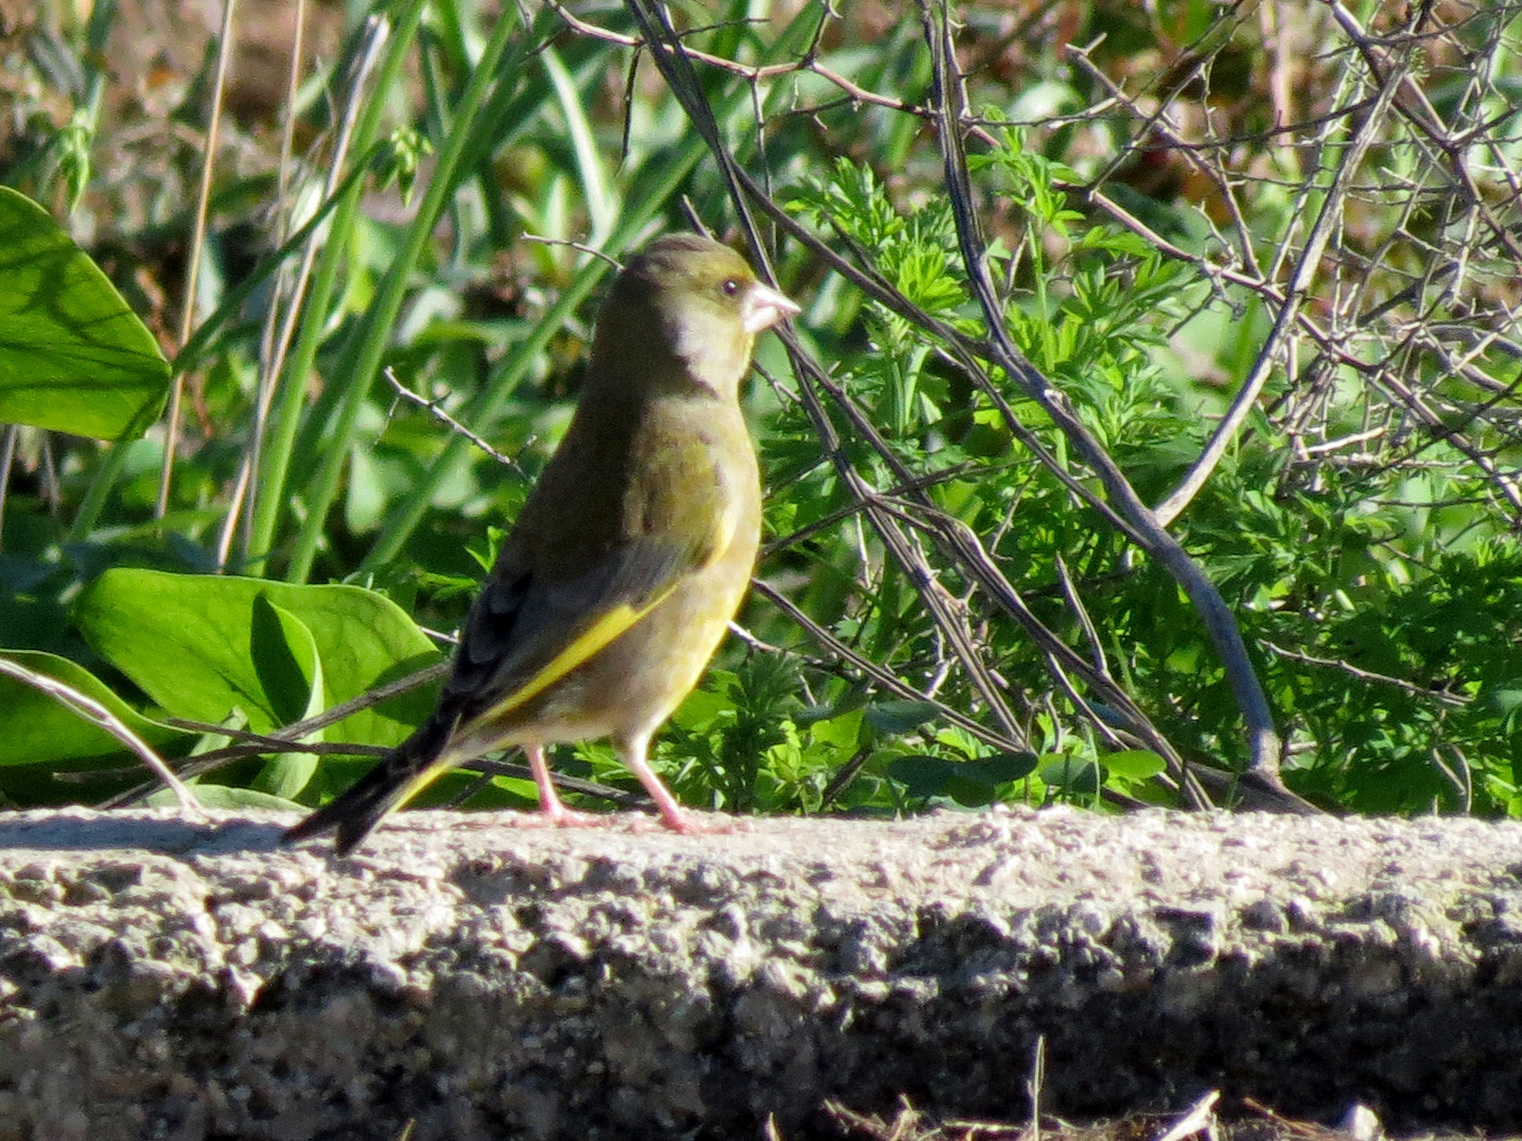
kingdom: Plantae
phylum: Tracheophyta
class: Liliopsida
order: Poales
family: Poaceae
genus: Chloris
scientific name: Chloris chloris
